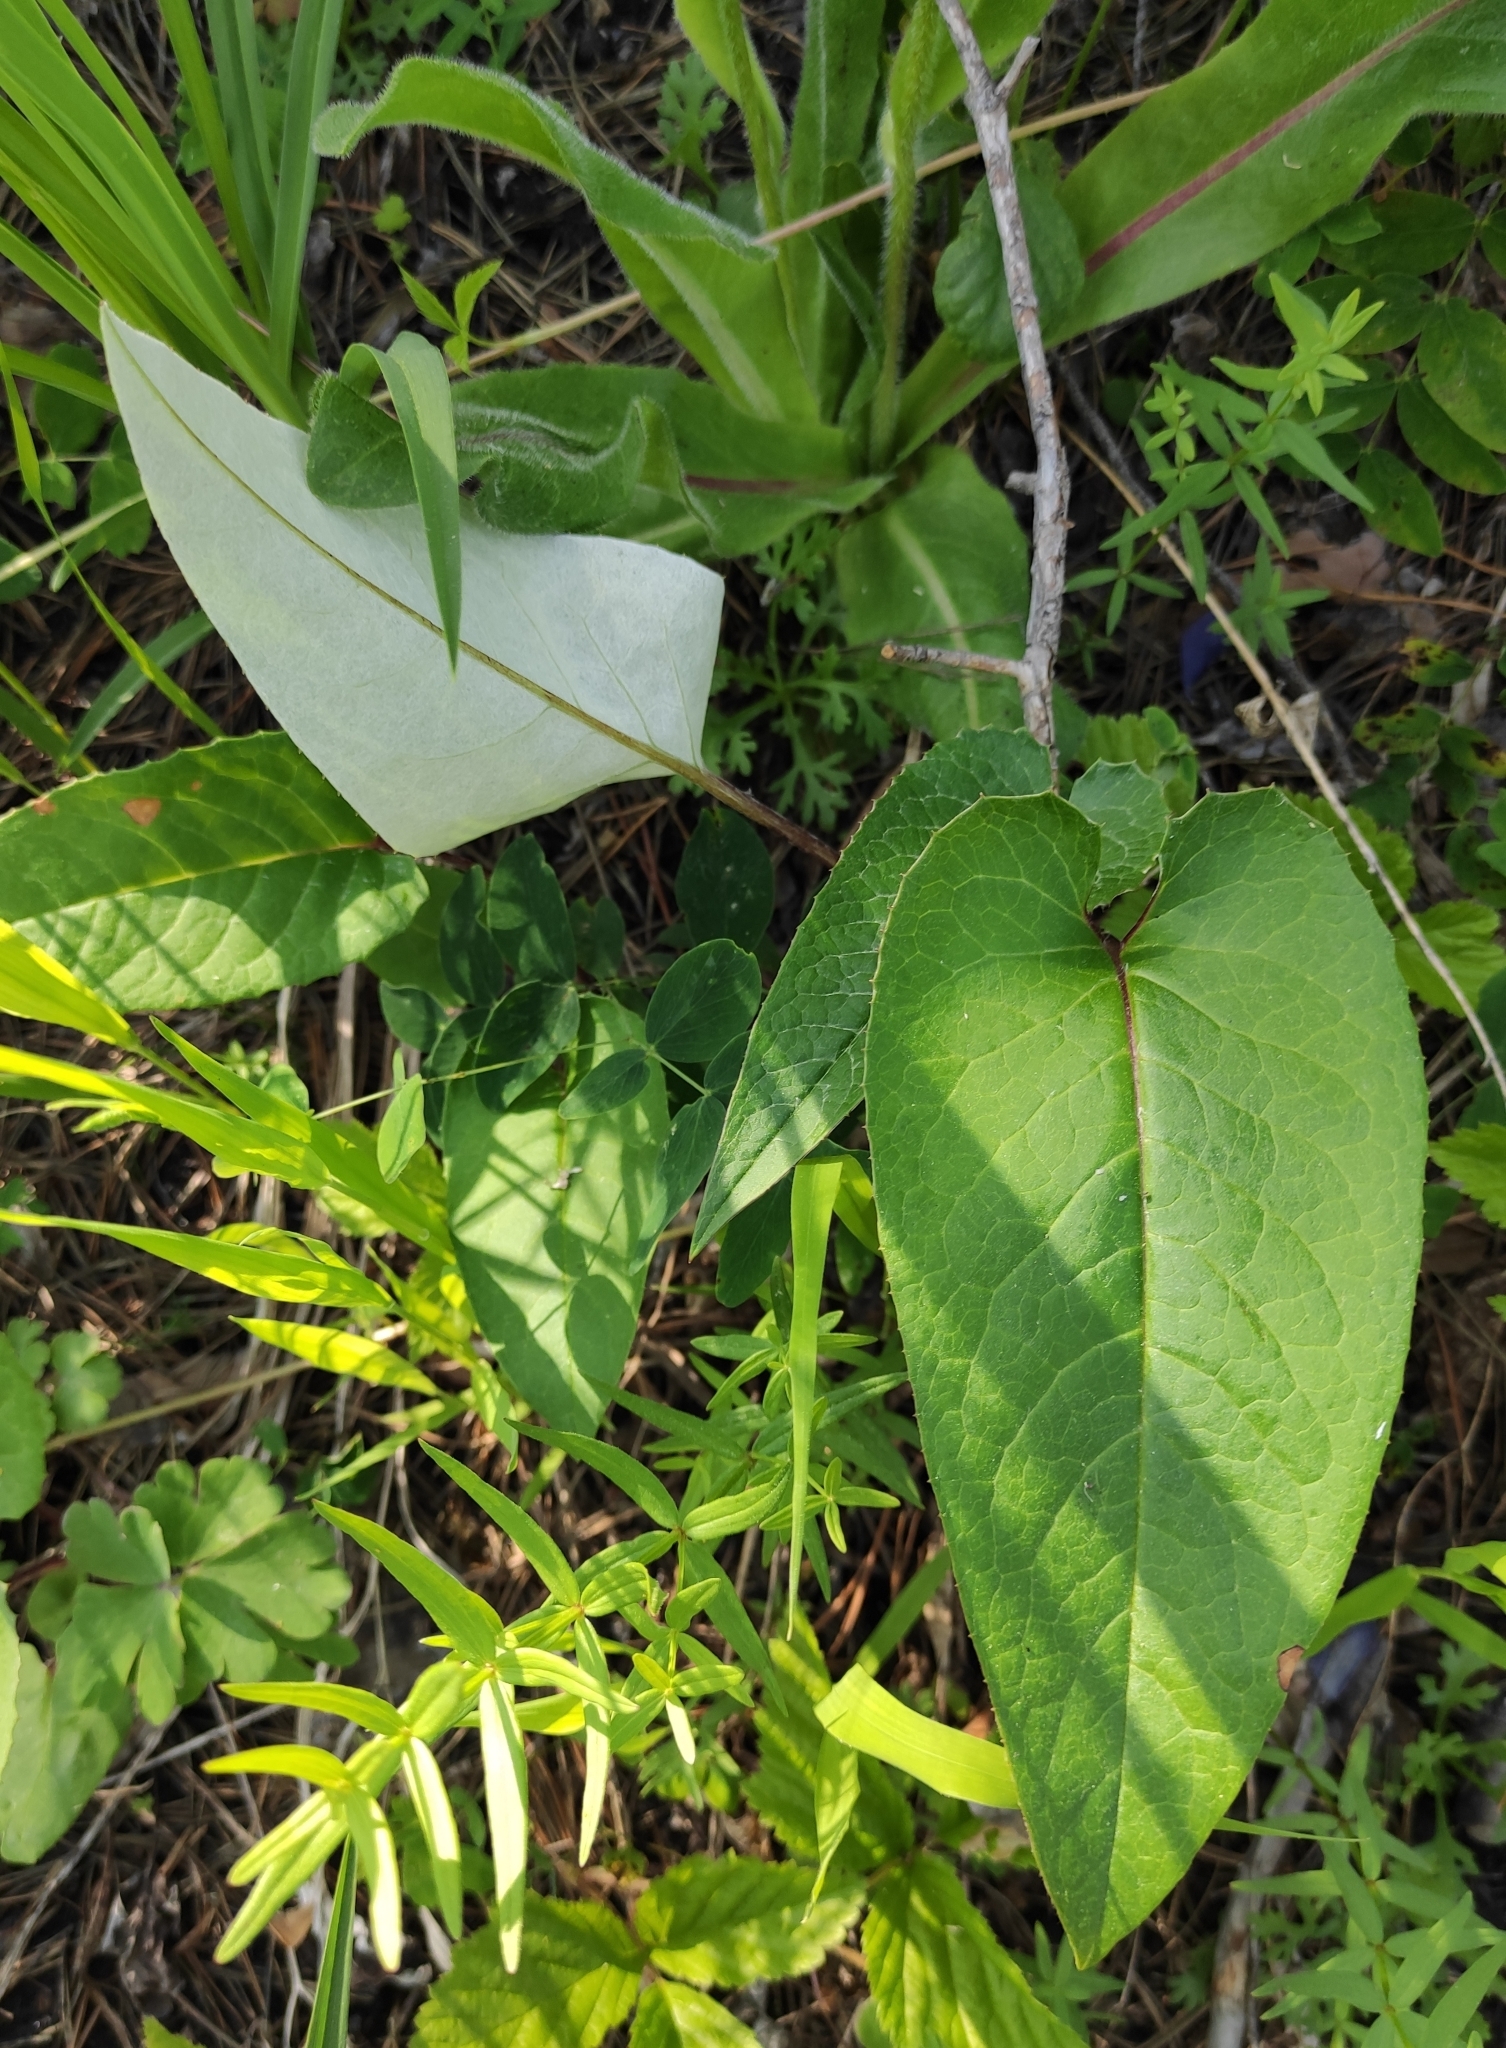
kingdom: Plantae
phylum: Tracheophyta
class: Magnoliopsida
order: Asterales
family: Asteraceae
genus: Saussurea
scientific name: Saussurea controversa
